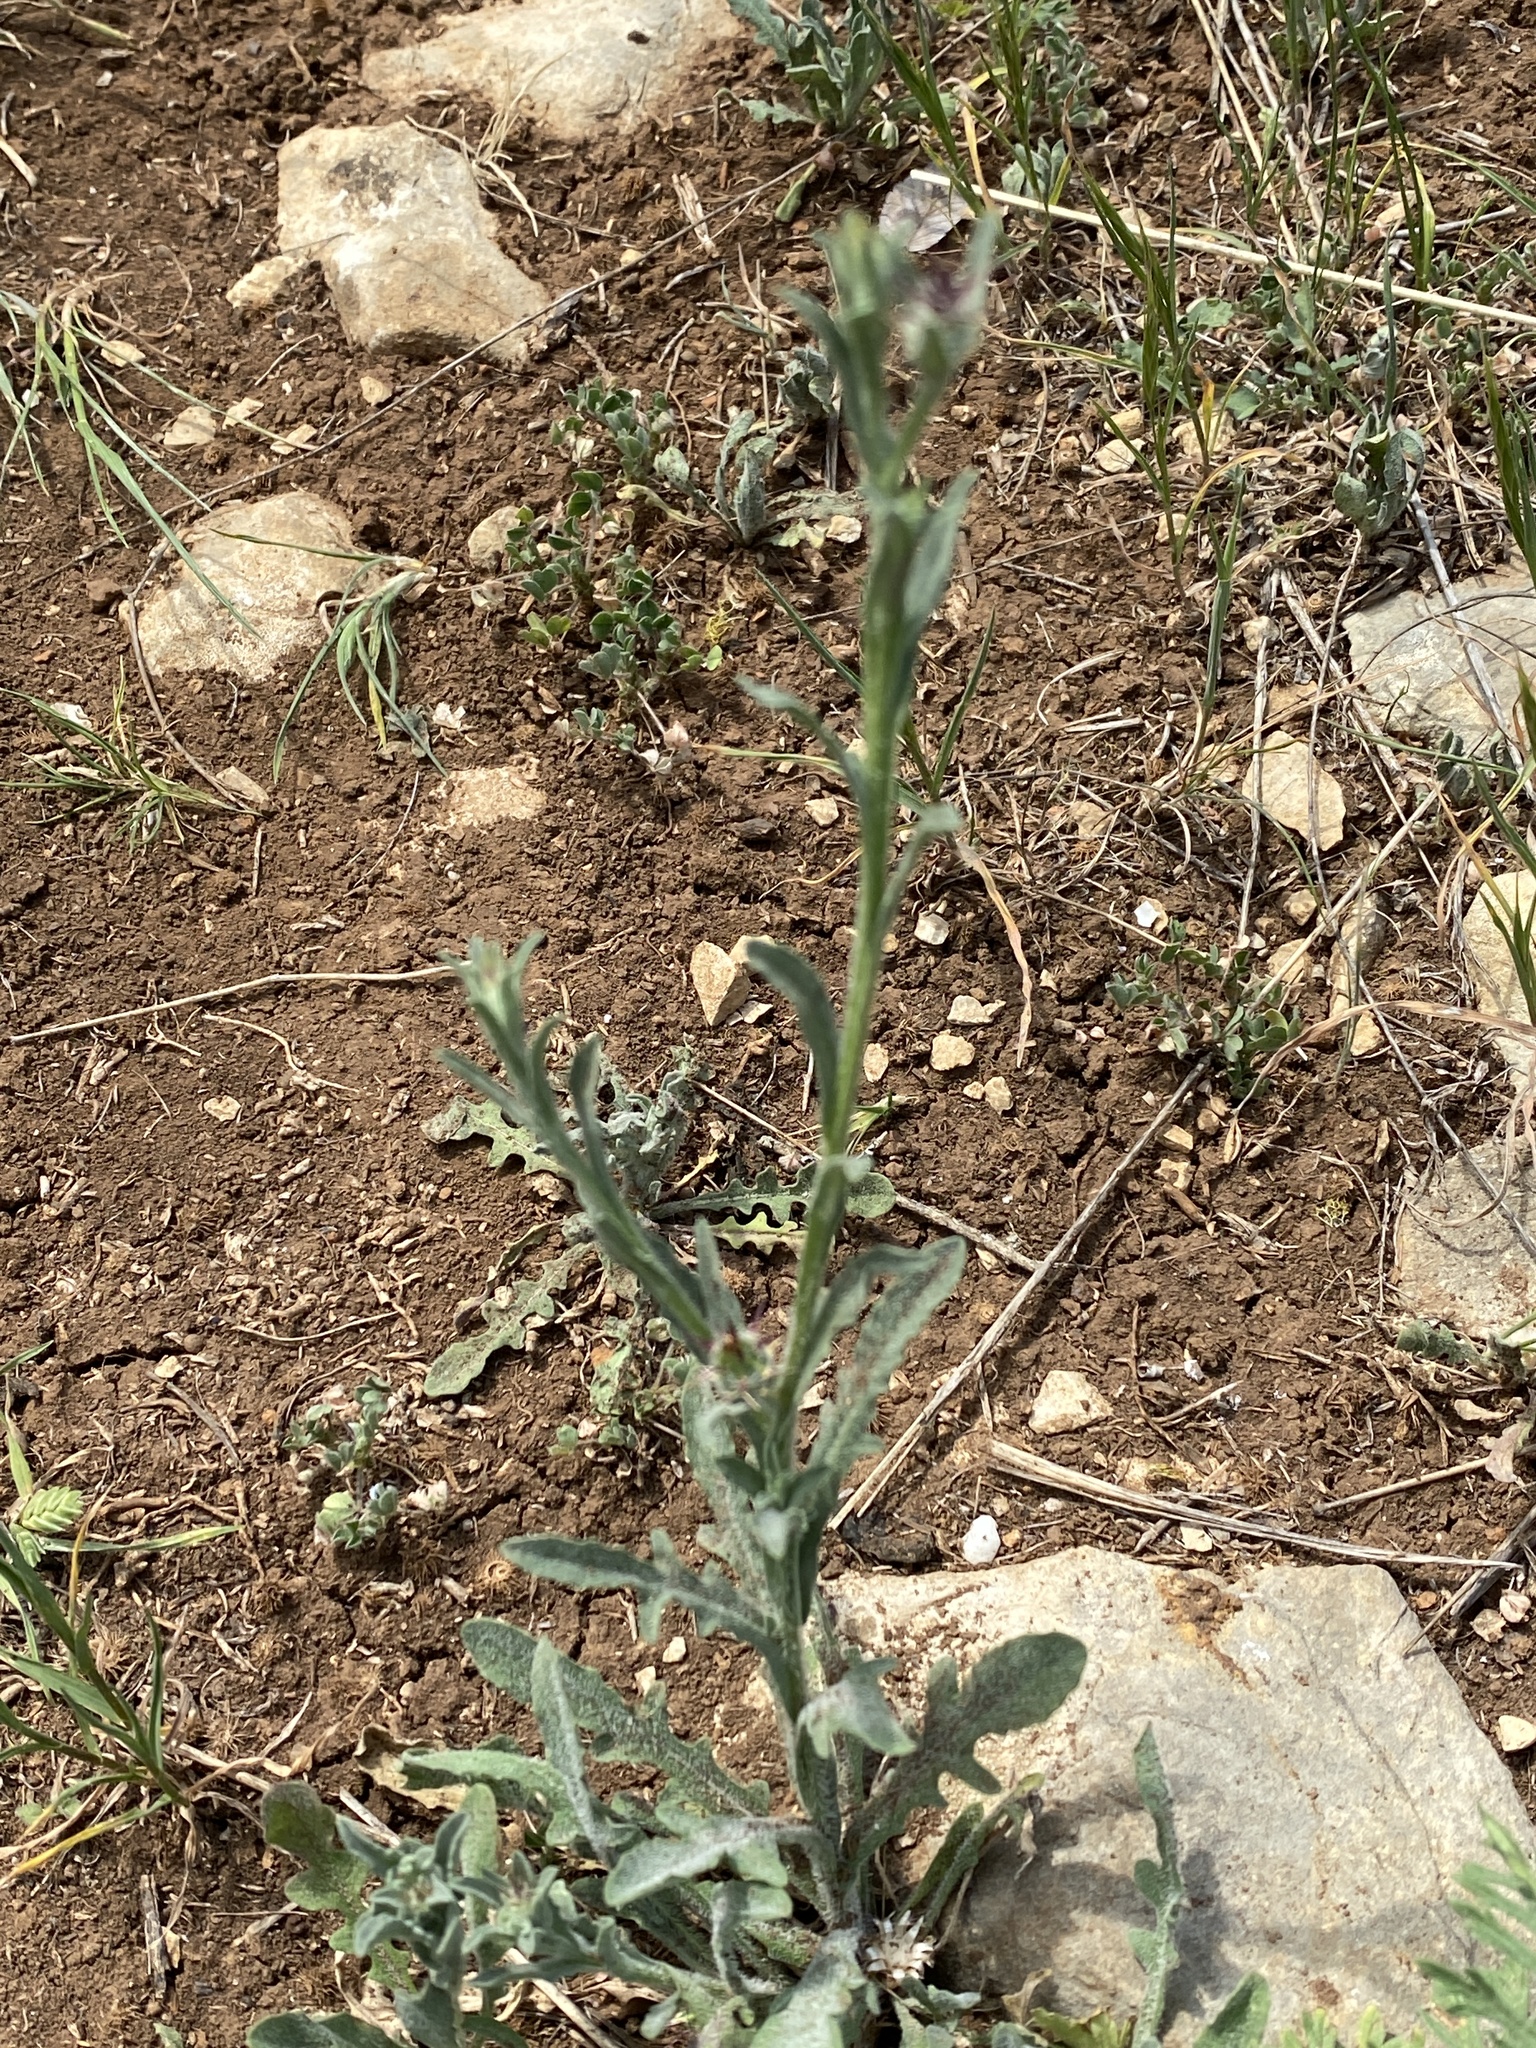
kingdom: Plantae
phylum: Tracheophyta
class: Magnoliopsida
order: Asterales
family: Asteraceae
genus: Centaurea
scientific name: Centaurea melitensis
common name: Maltese star-thistle
